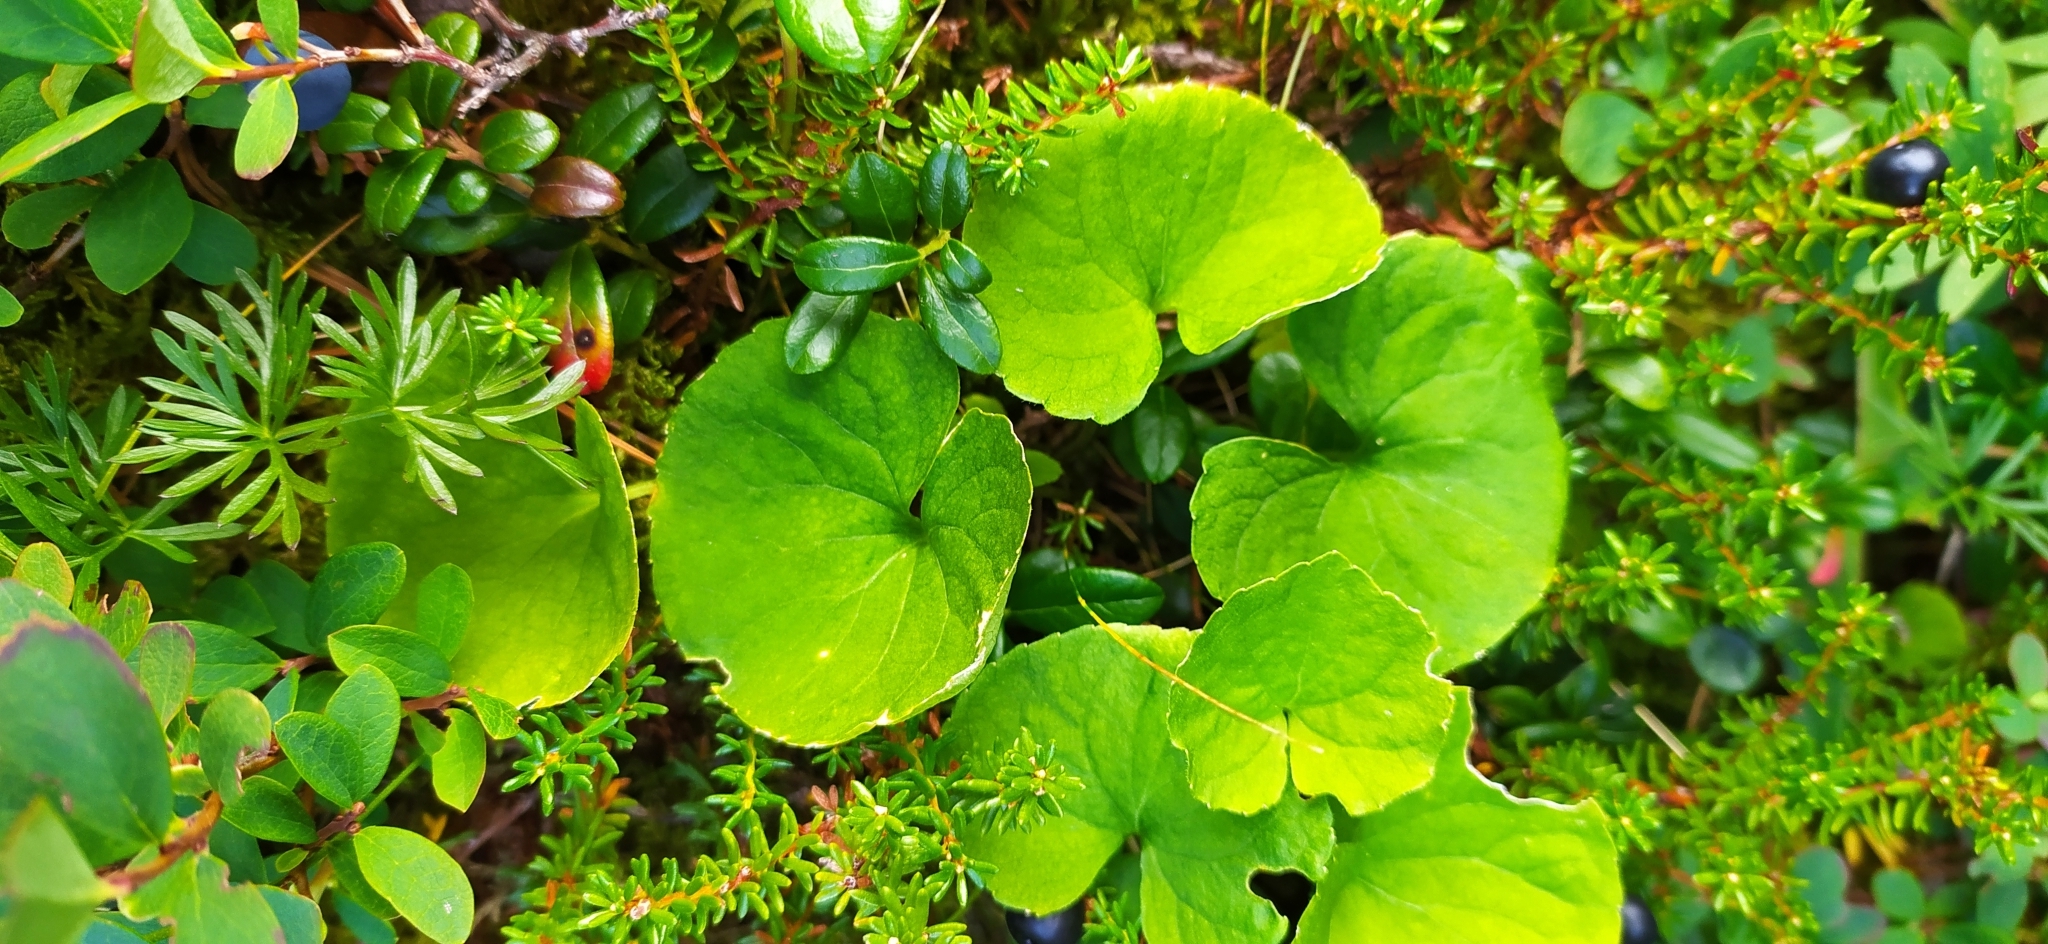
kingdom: Plantae
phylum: Tracheophyta
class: Magnoliopsida
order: Malpighiales
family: Violaceae
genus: Viola
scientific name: Viola biflora
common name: Alpine yellow violet
